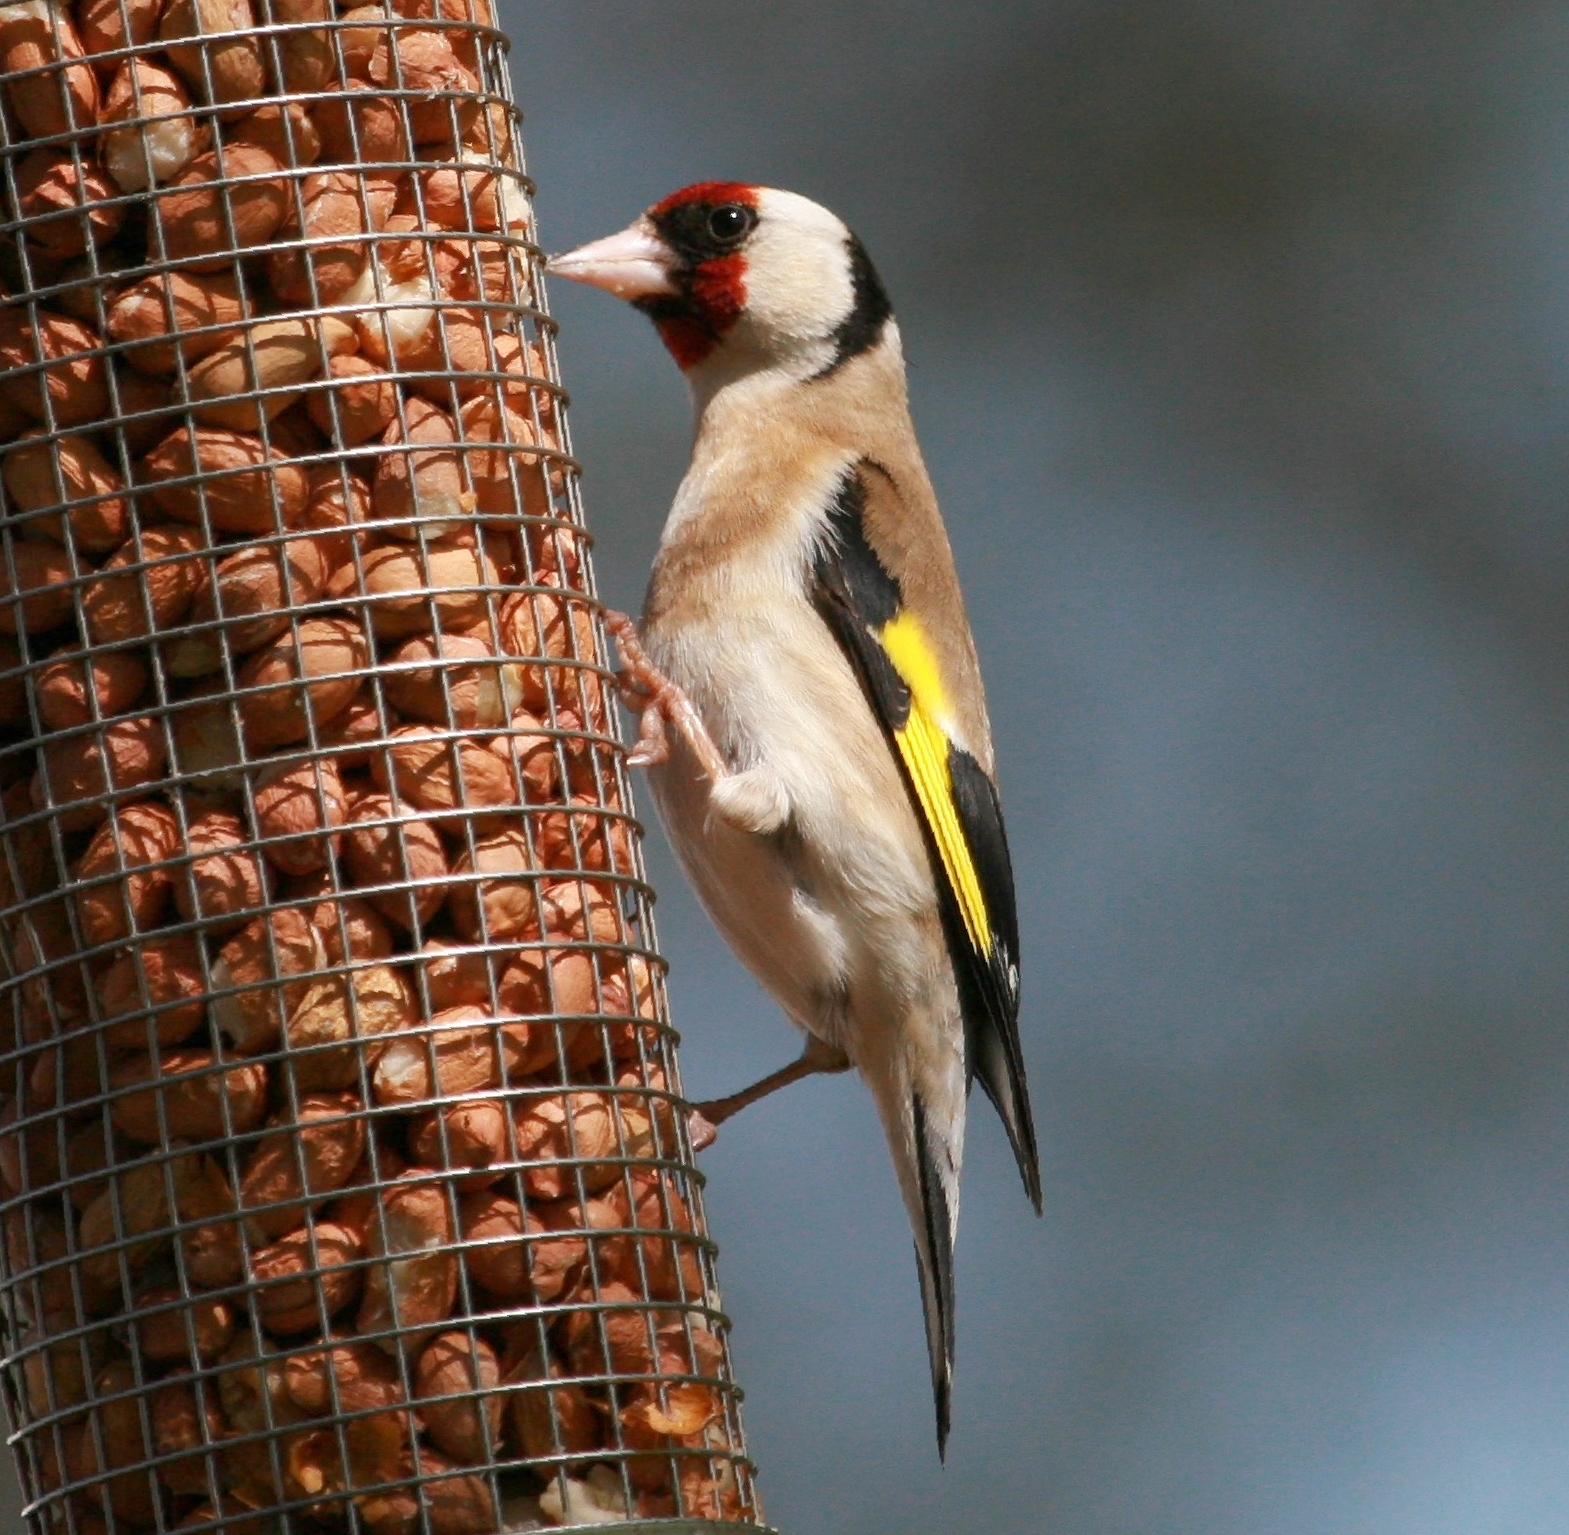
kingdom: Animalia
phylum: Chordata
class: Aves
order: Passeriformes
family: Fringillidae
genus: Carduelis
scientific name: Carduelis carduelis
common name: European goldfinch
